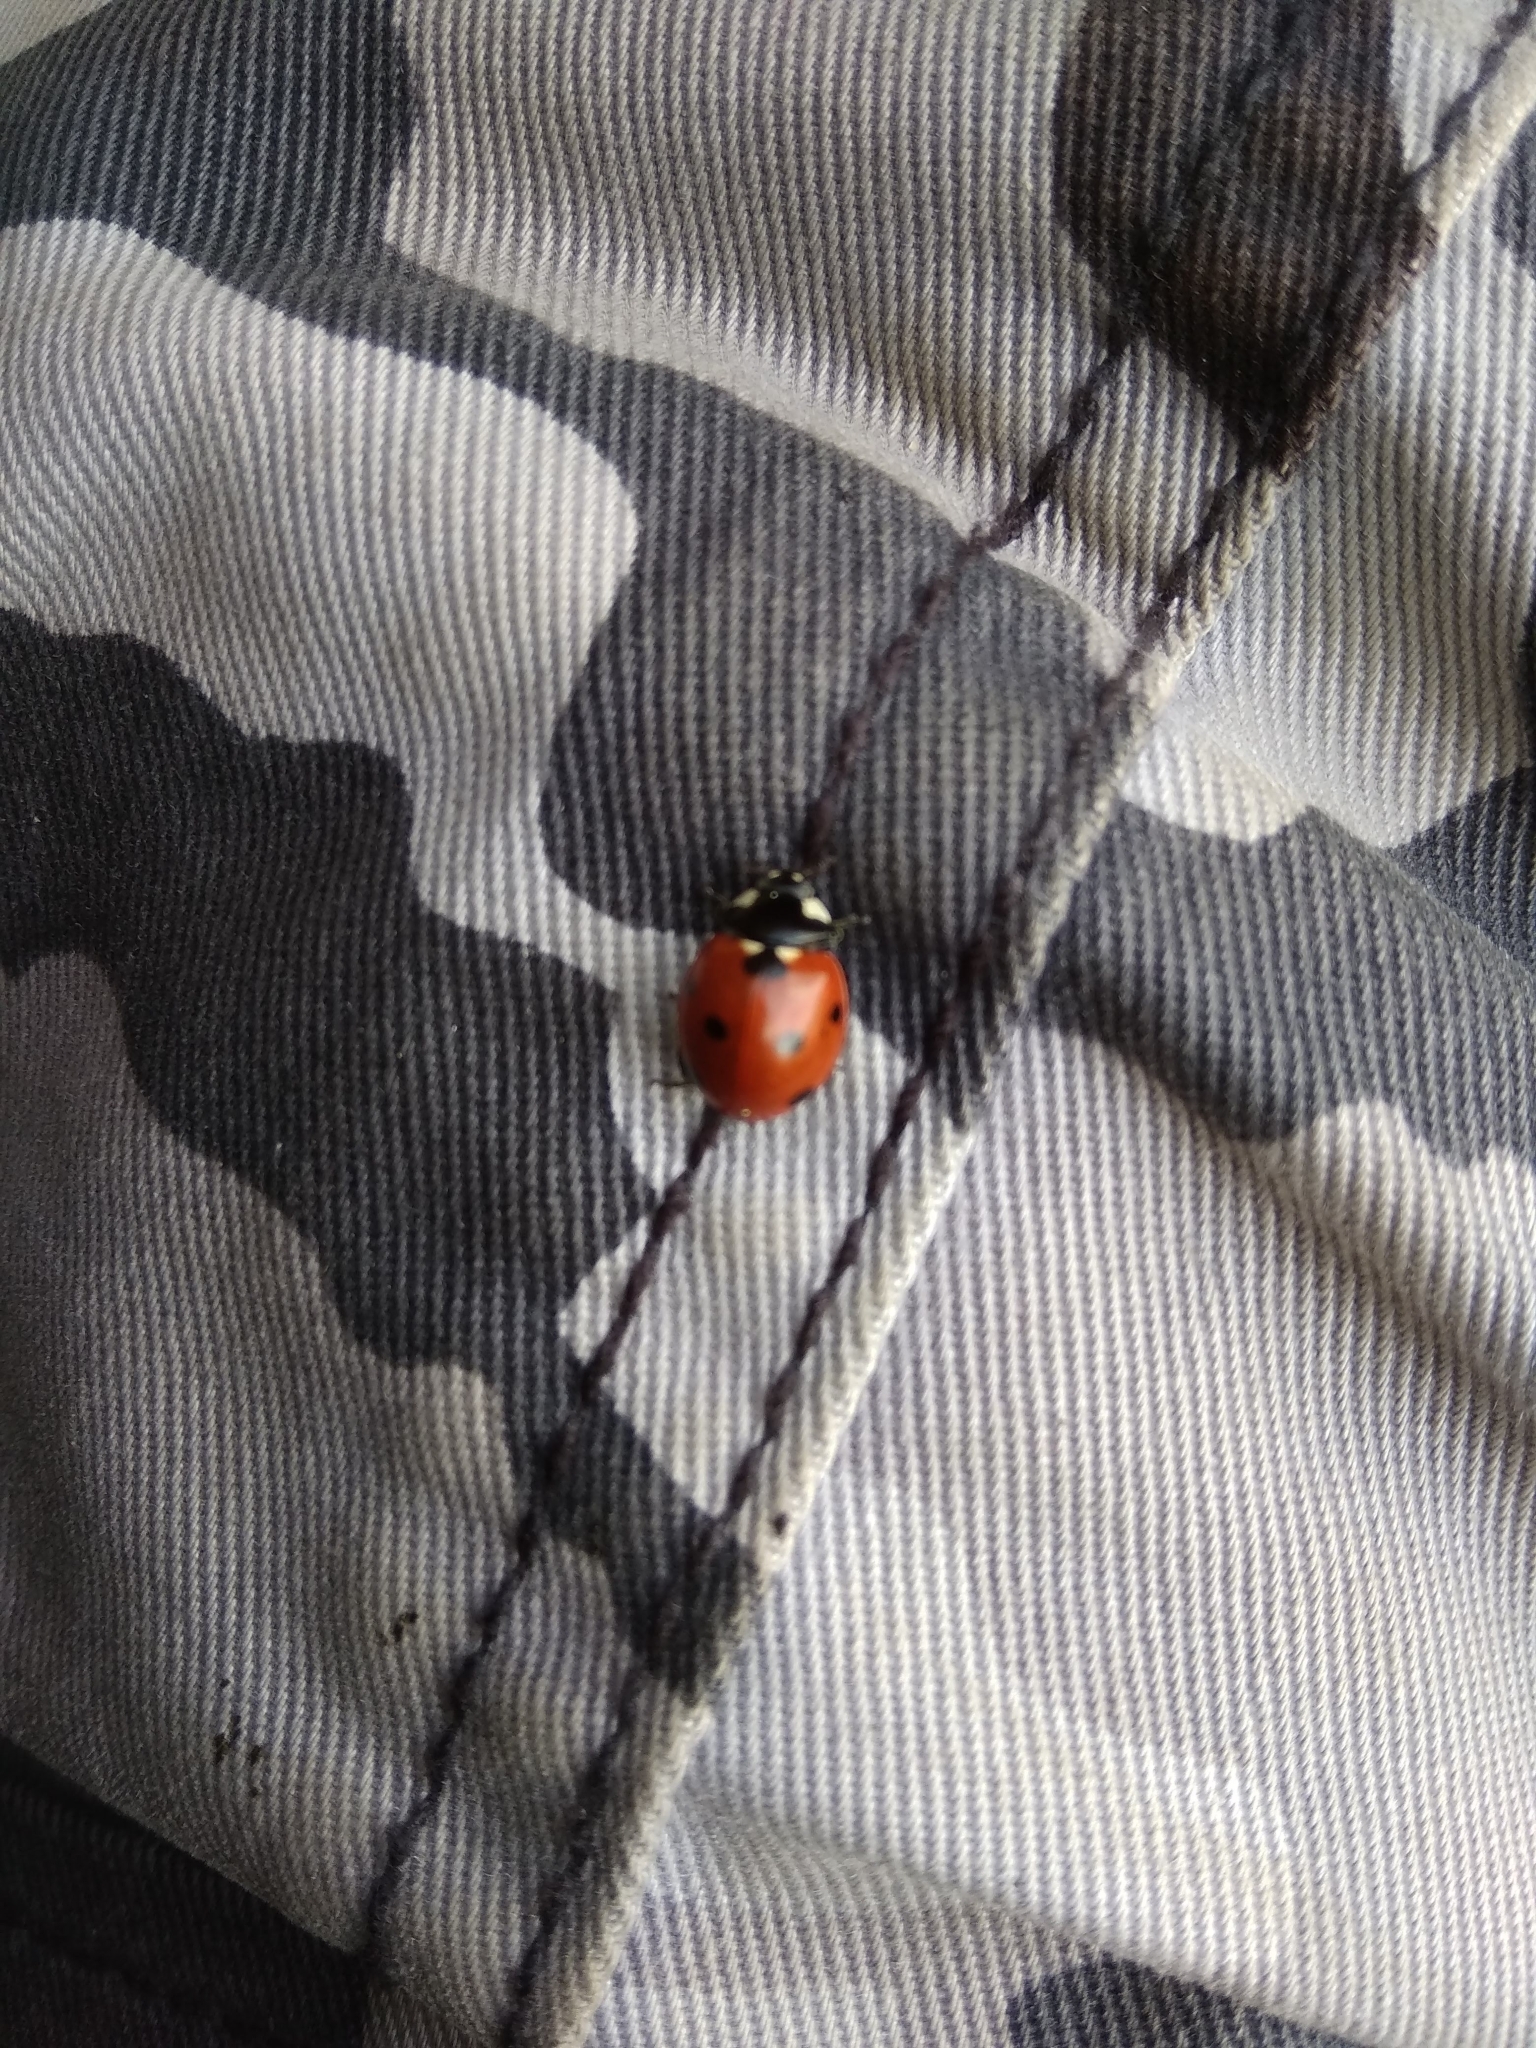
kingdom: Animalia
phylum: Arthropoda
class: Insecta
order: Coleoptera
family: Coccinellidae
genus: Coccinella
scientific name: Coccinella septempunctata
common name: Sevenspotted lady beetle
